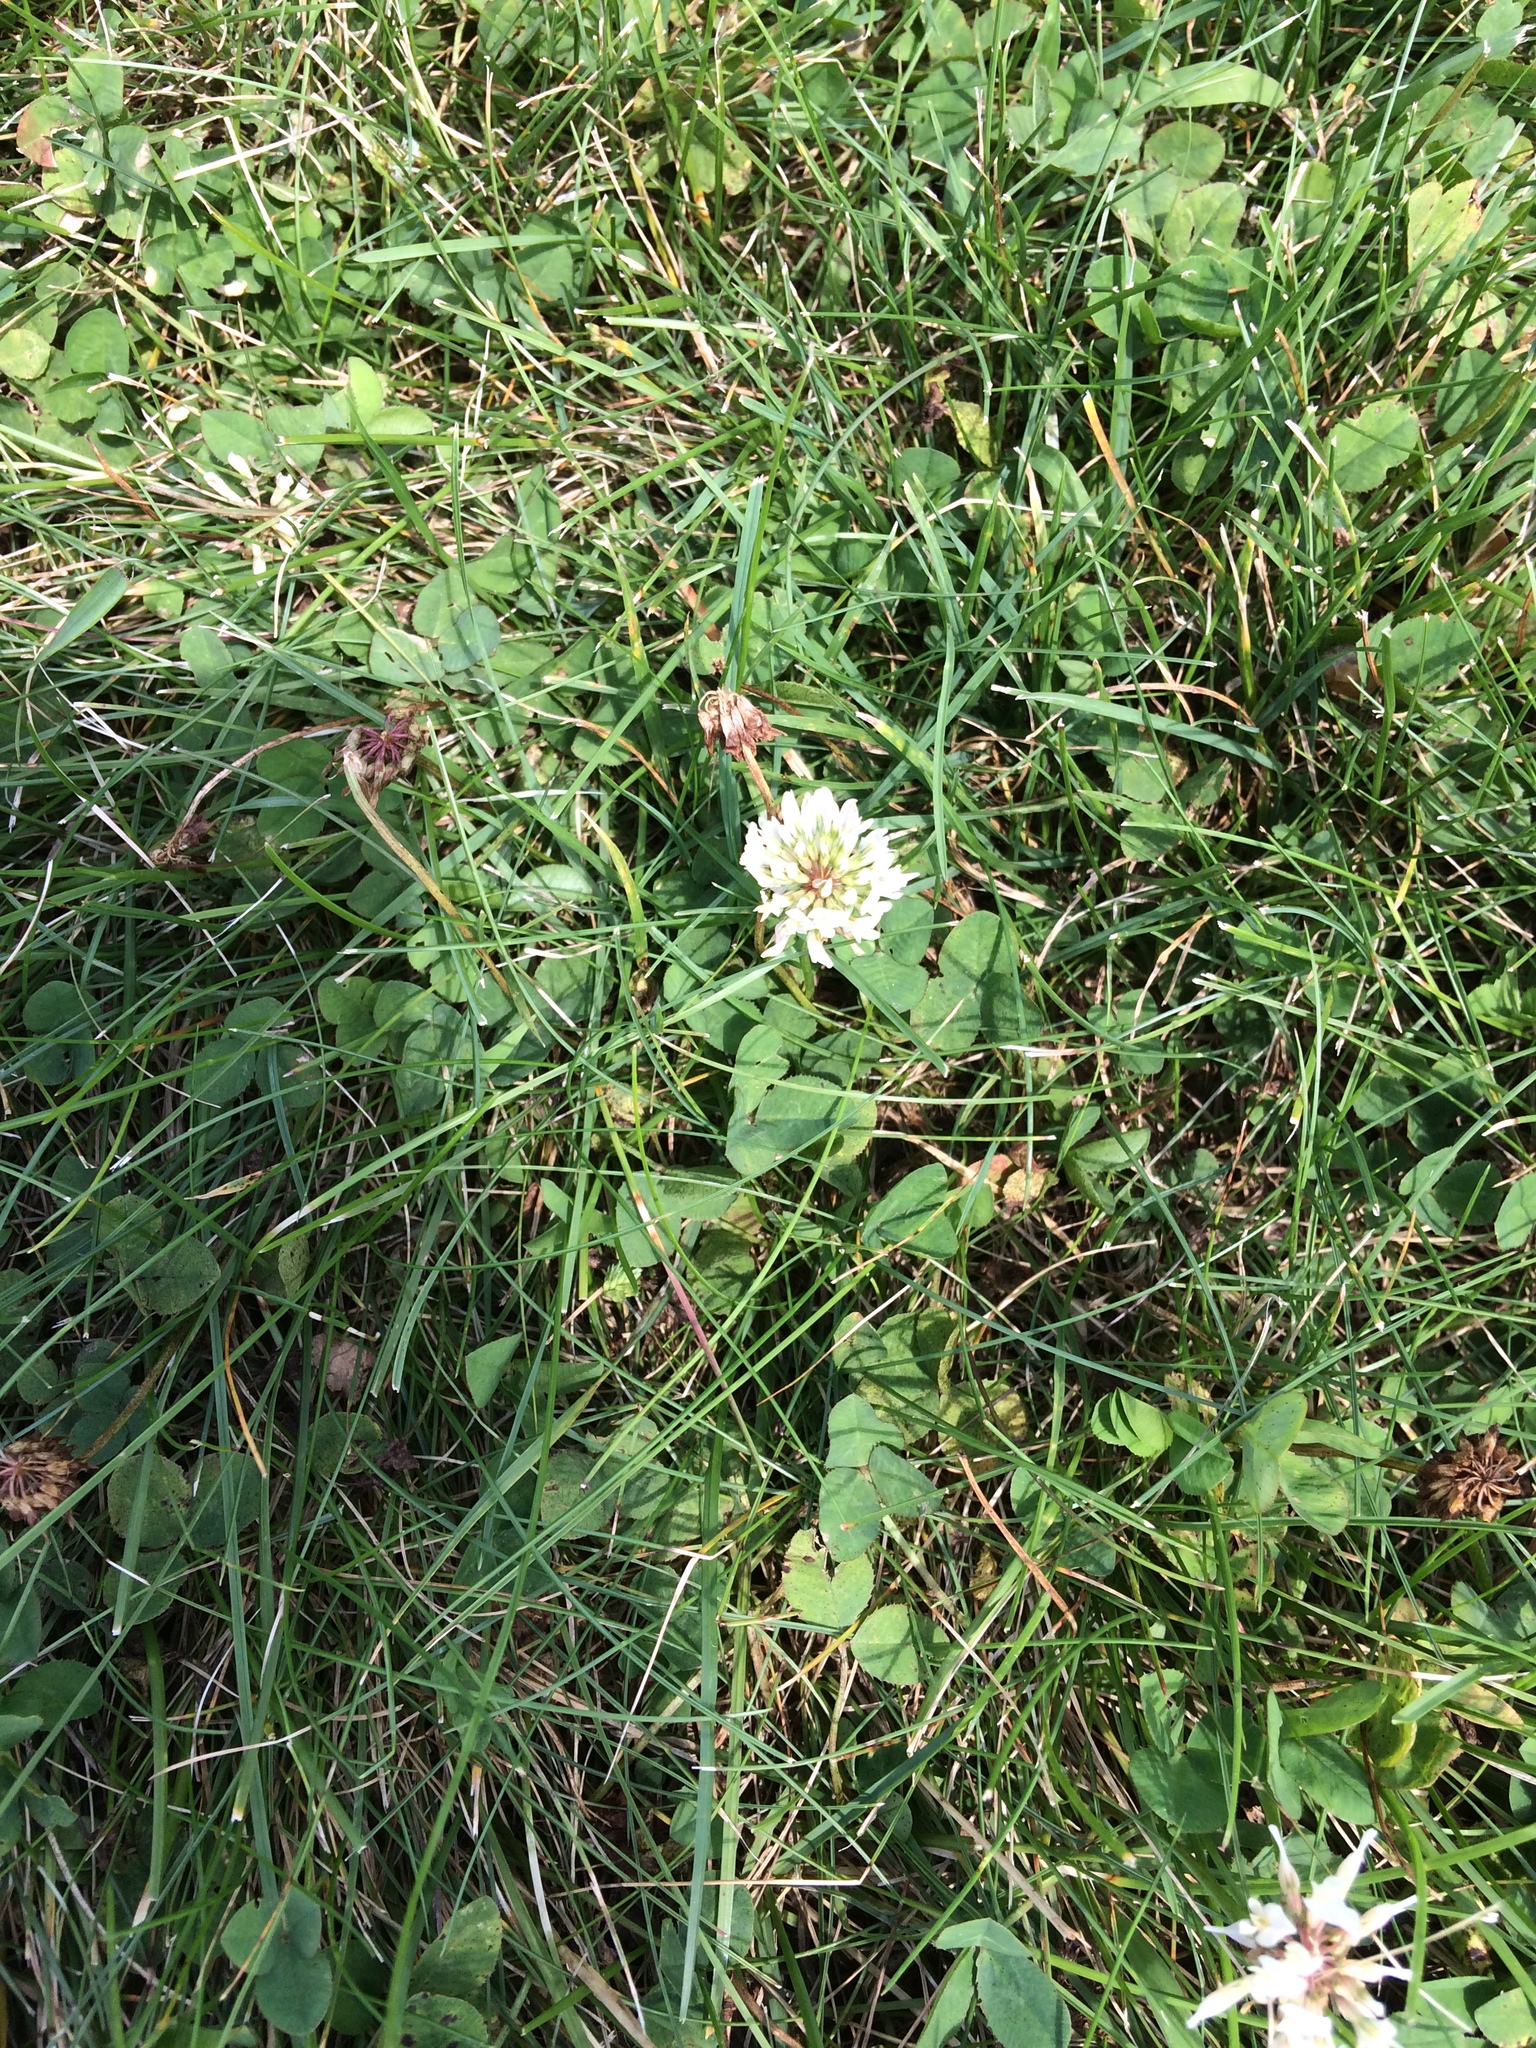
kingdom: Plantae
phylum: Tracheophyta
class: Magnoliopsida
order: Fabales
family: Fabaceae
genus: Trifolium
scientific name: Trifolium repens
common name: White clover
